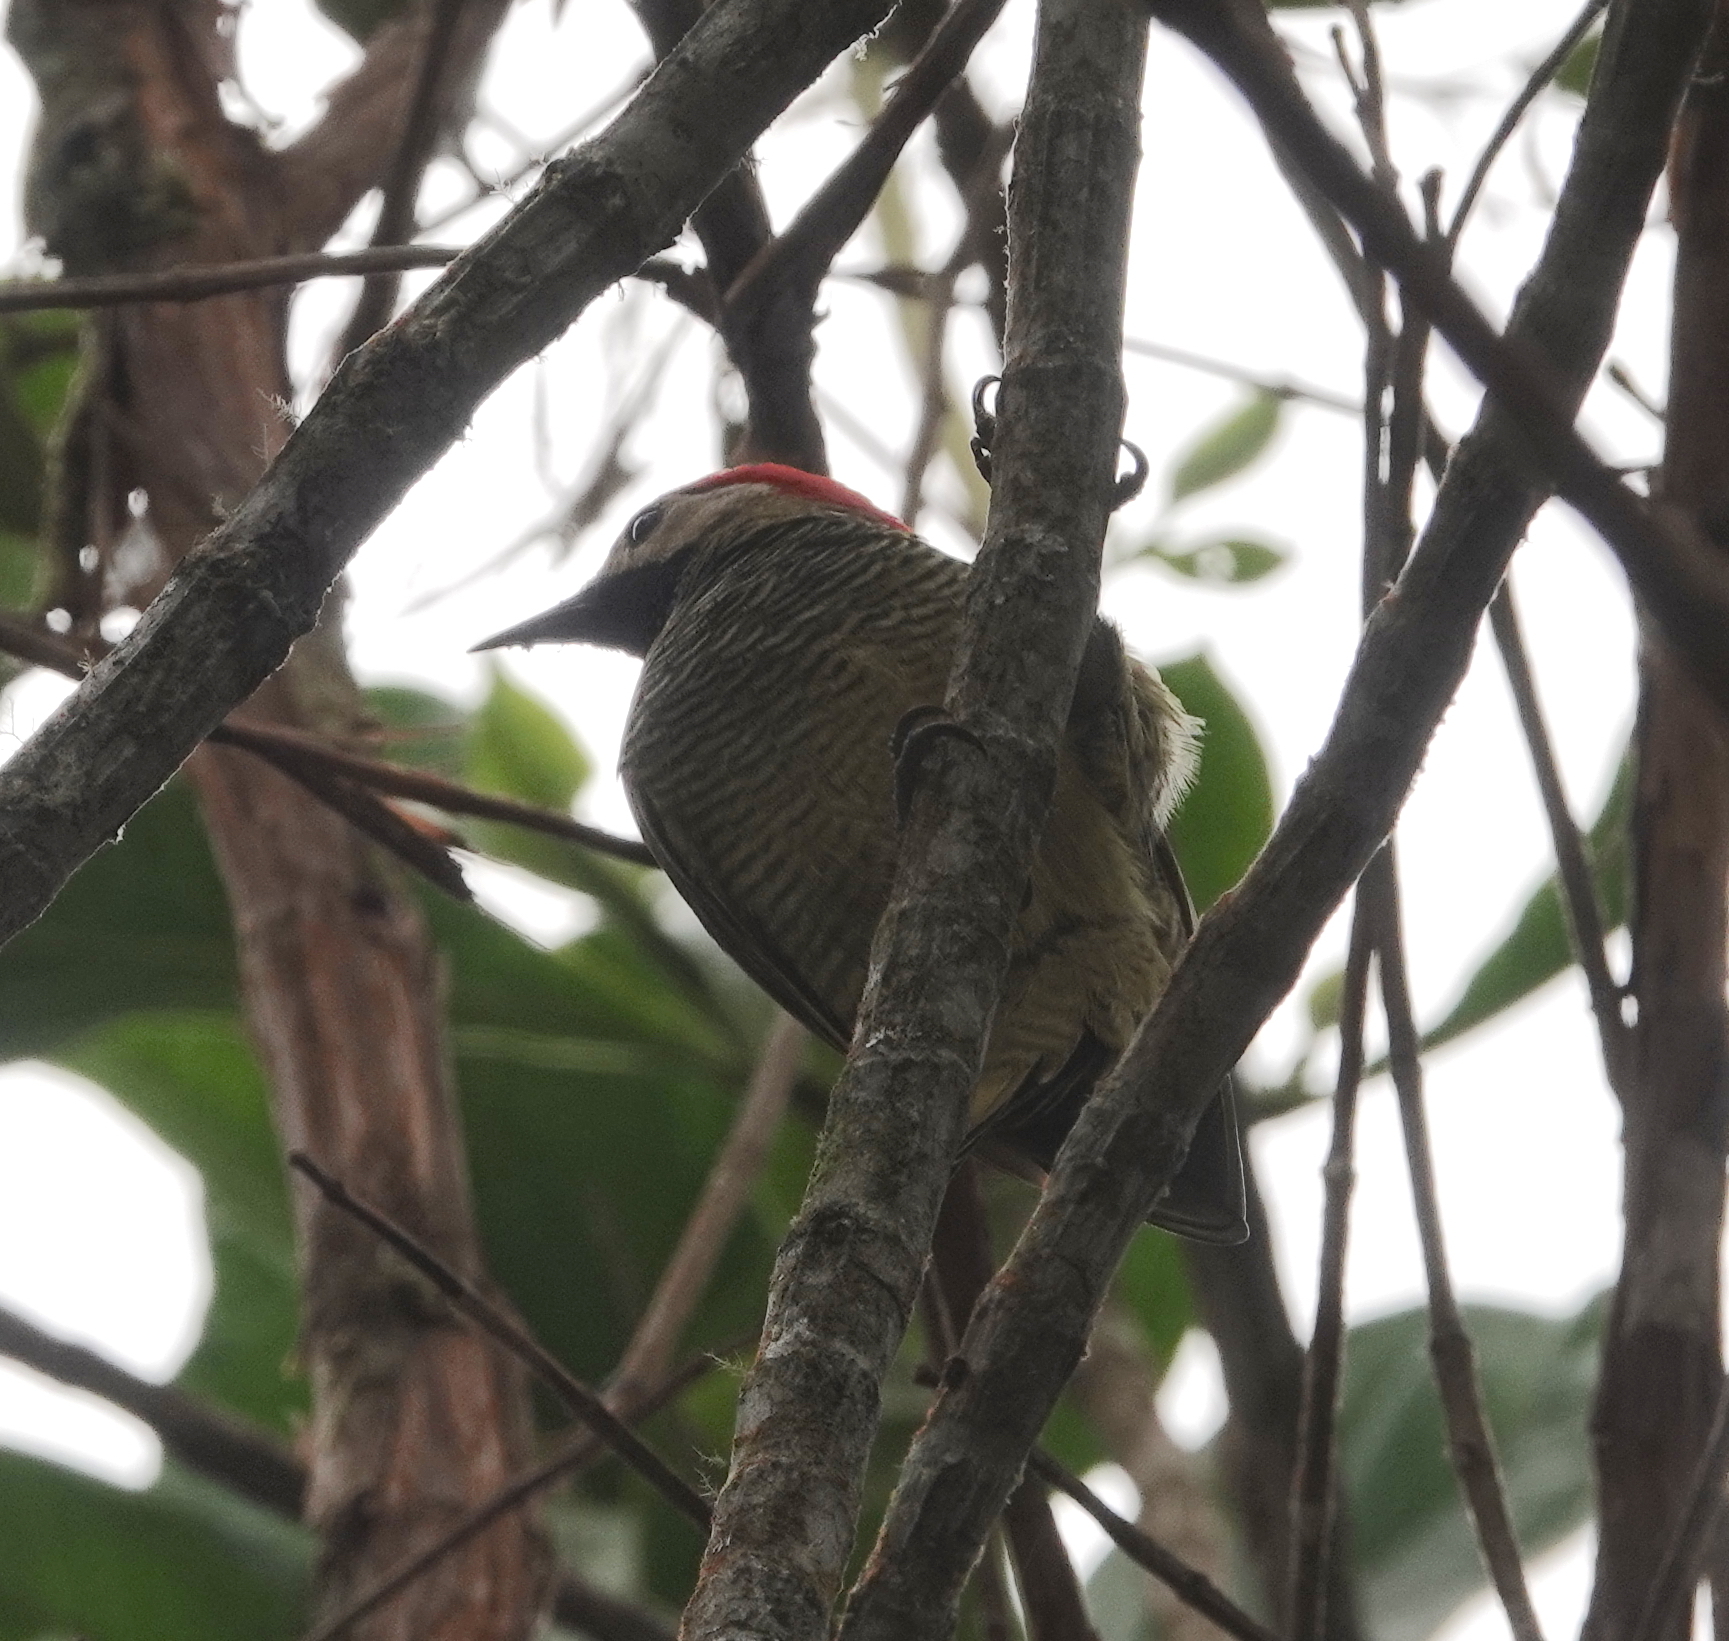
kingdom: Animalia
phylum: Chordata
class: Aves
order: Piciformes
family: Picidae
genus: Colaptes
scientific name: Colaptes rubiginosus
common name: Golden-olive woodpecker
